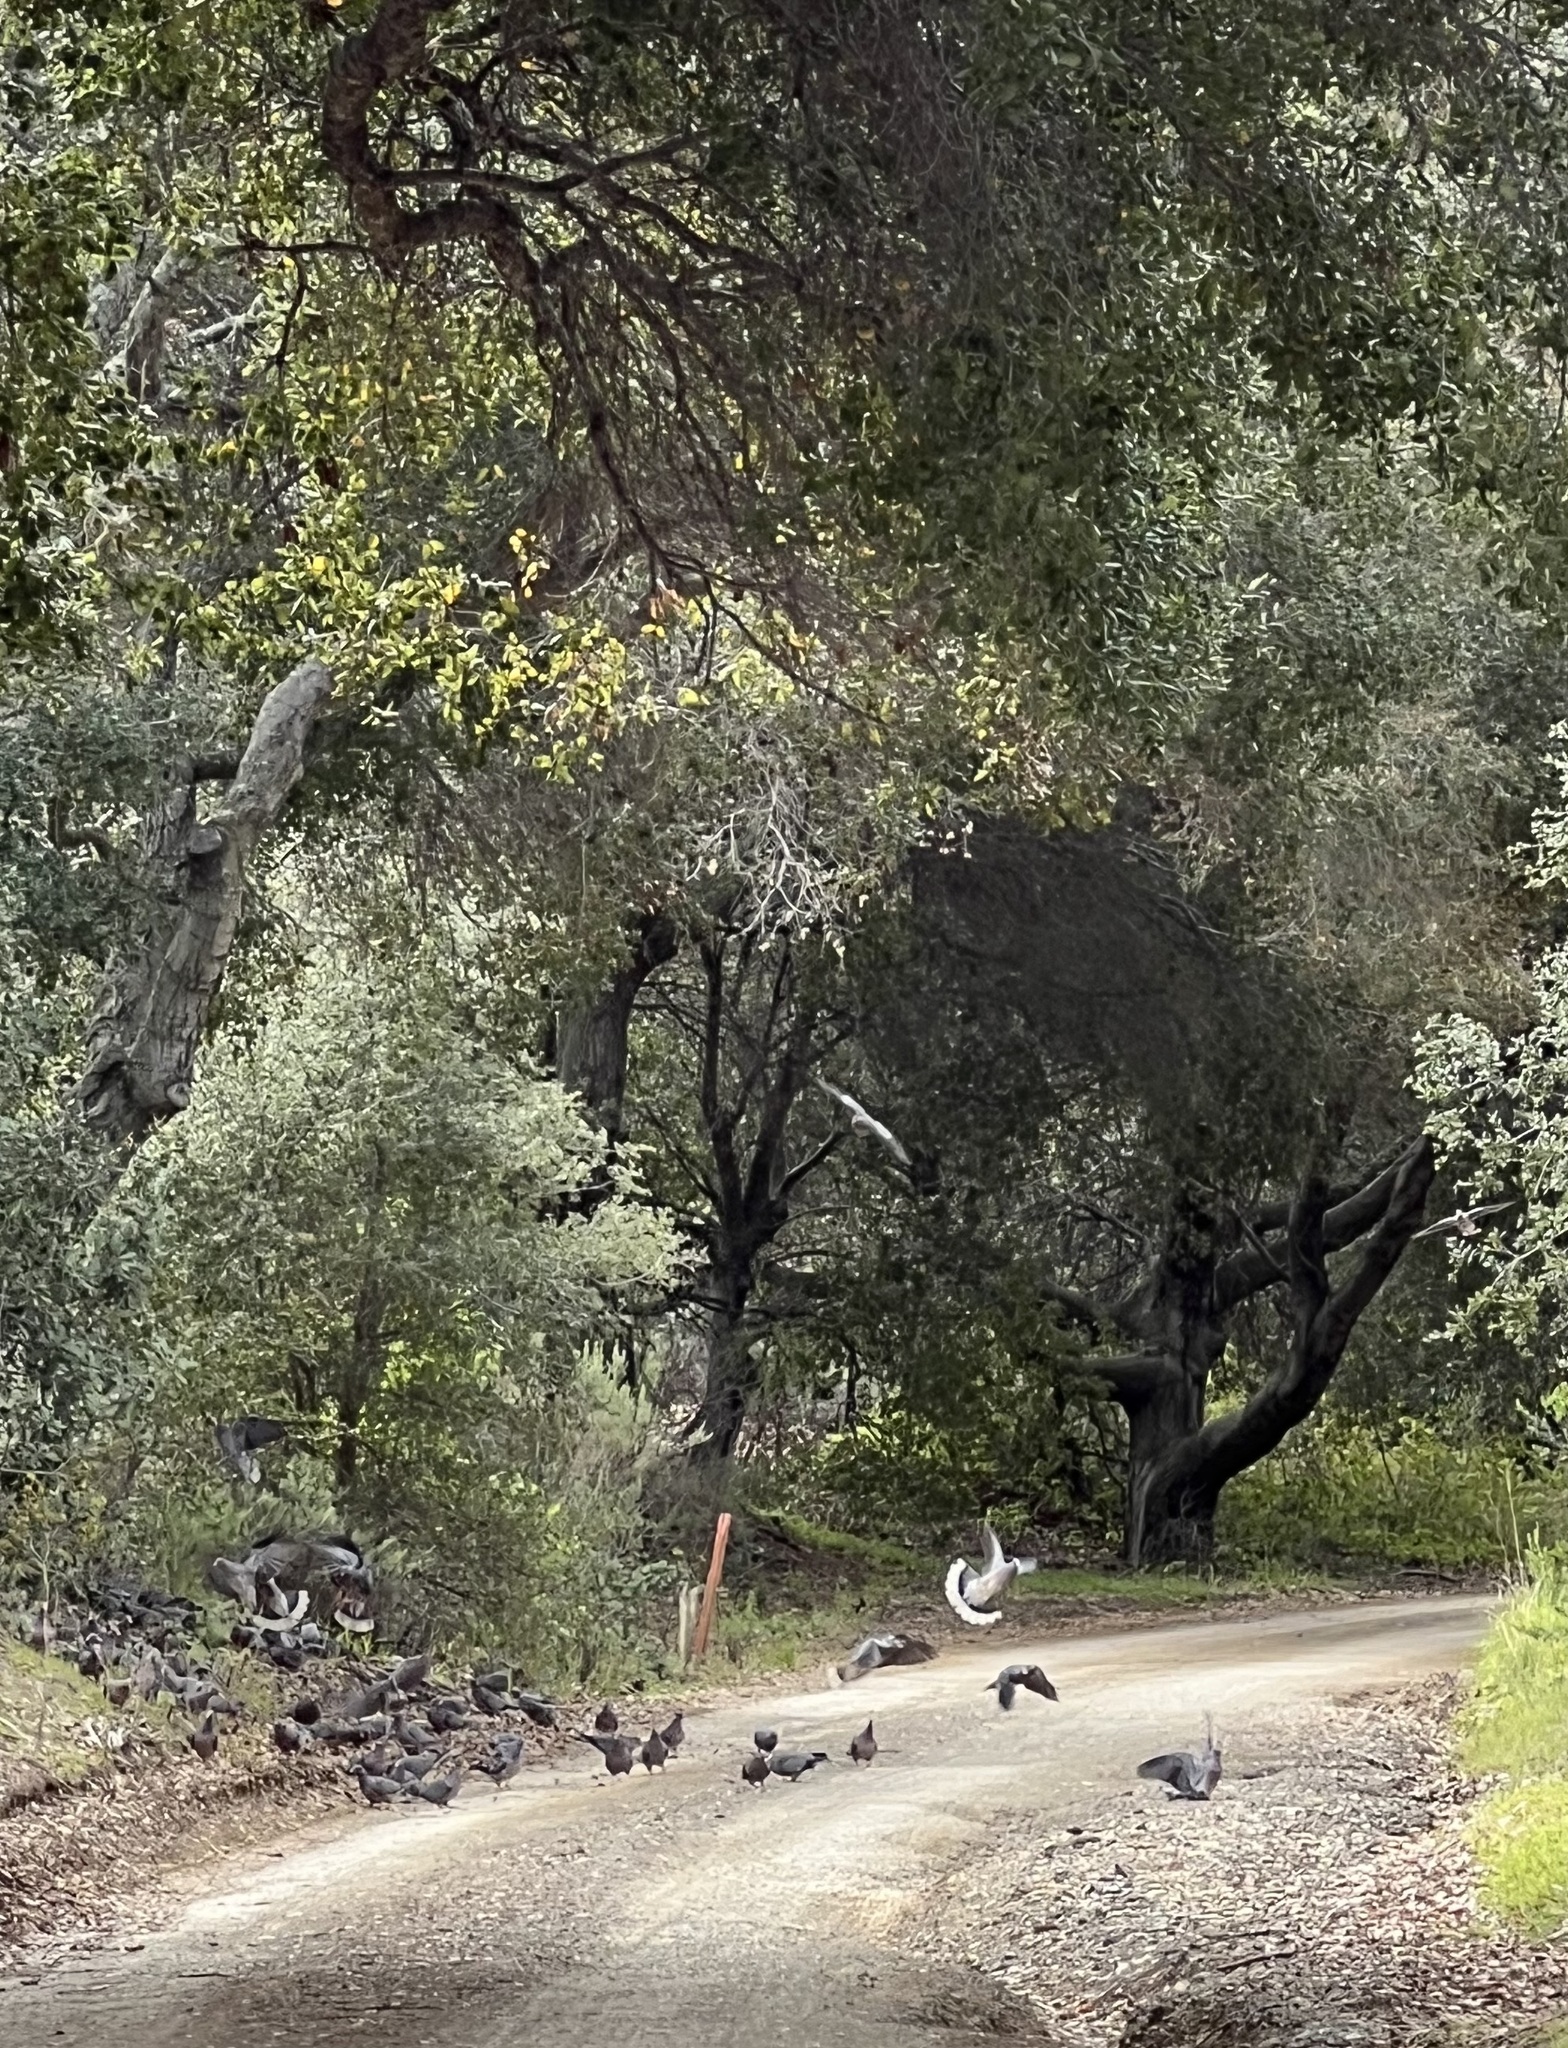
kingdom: Animalia
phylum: Chordata
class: Aves
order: Columbiformes
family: Columbidae
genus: Patagioenas
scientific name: Patagioenas fasciata
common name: Band-tailed pigeon
